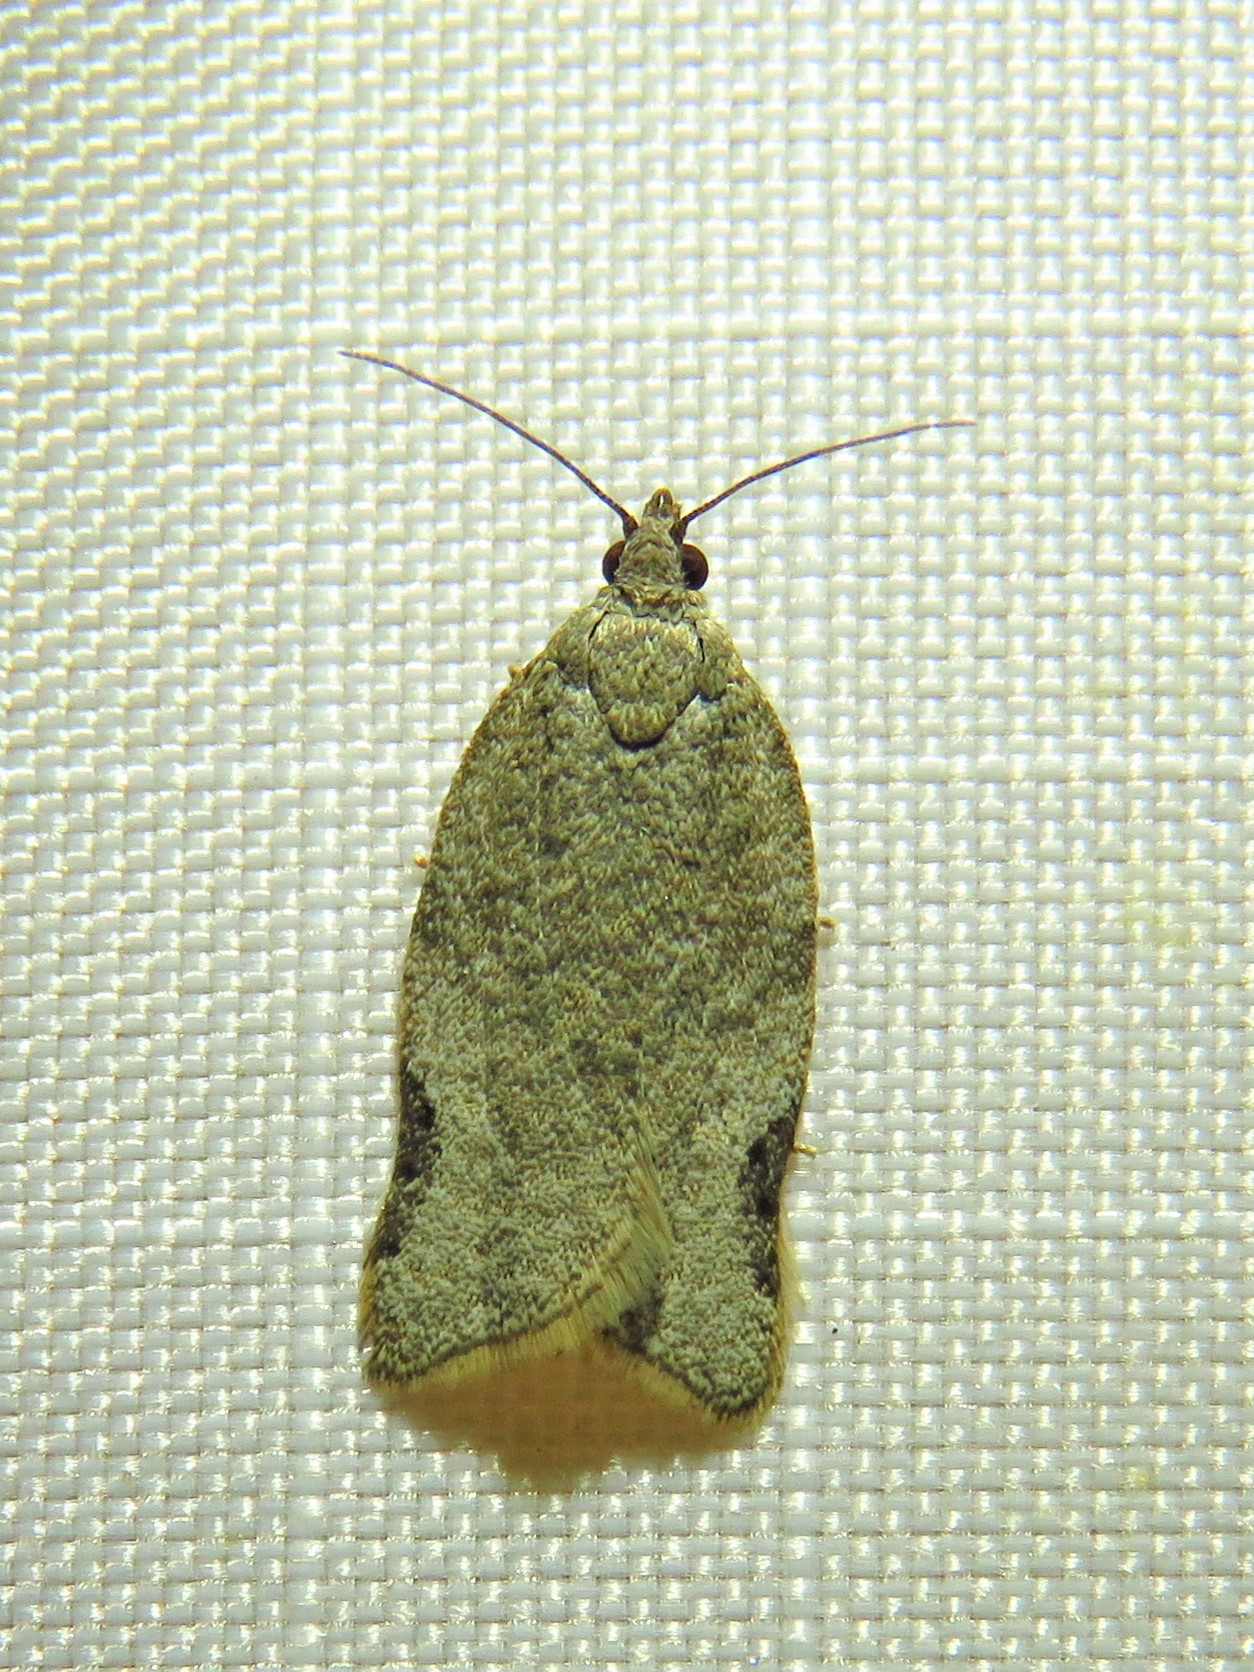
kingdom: Animalia
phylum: Arthropoda
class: Insecta
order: Lepidoptera
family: Tortricidae
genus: Clepsis
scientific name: Clepsis virescana
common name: Greenish apple moth
